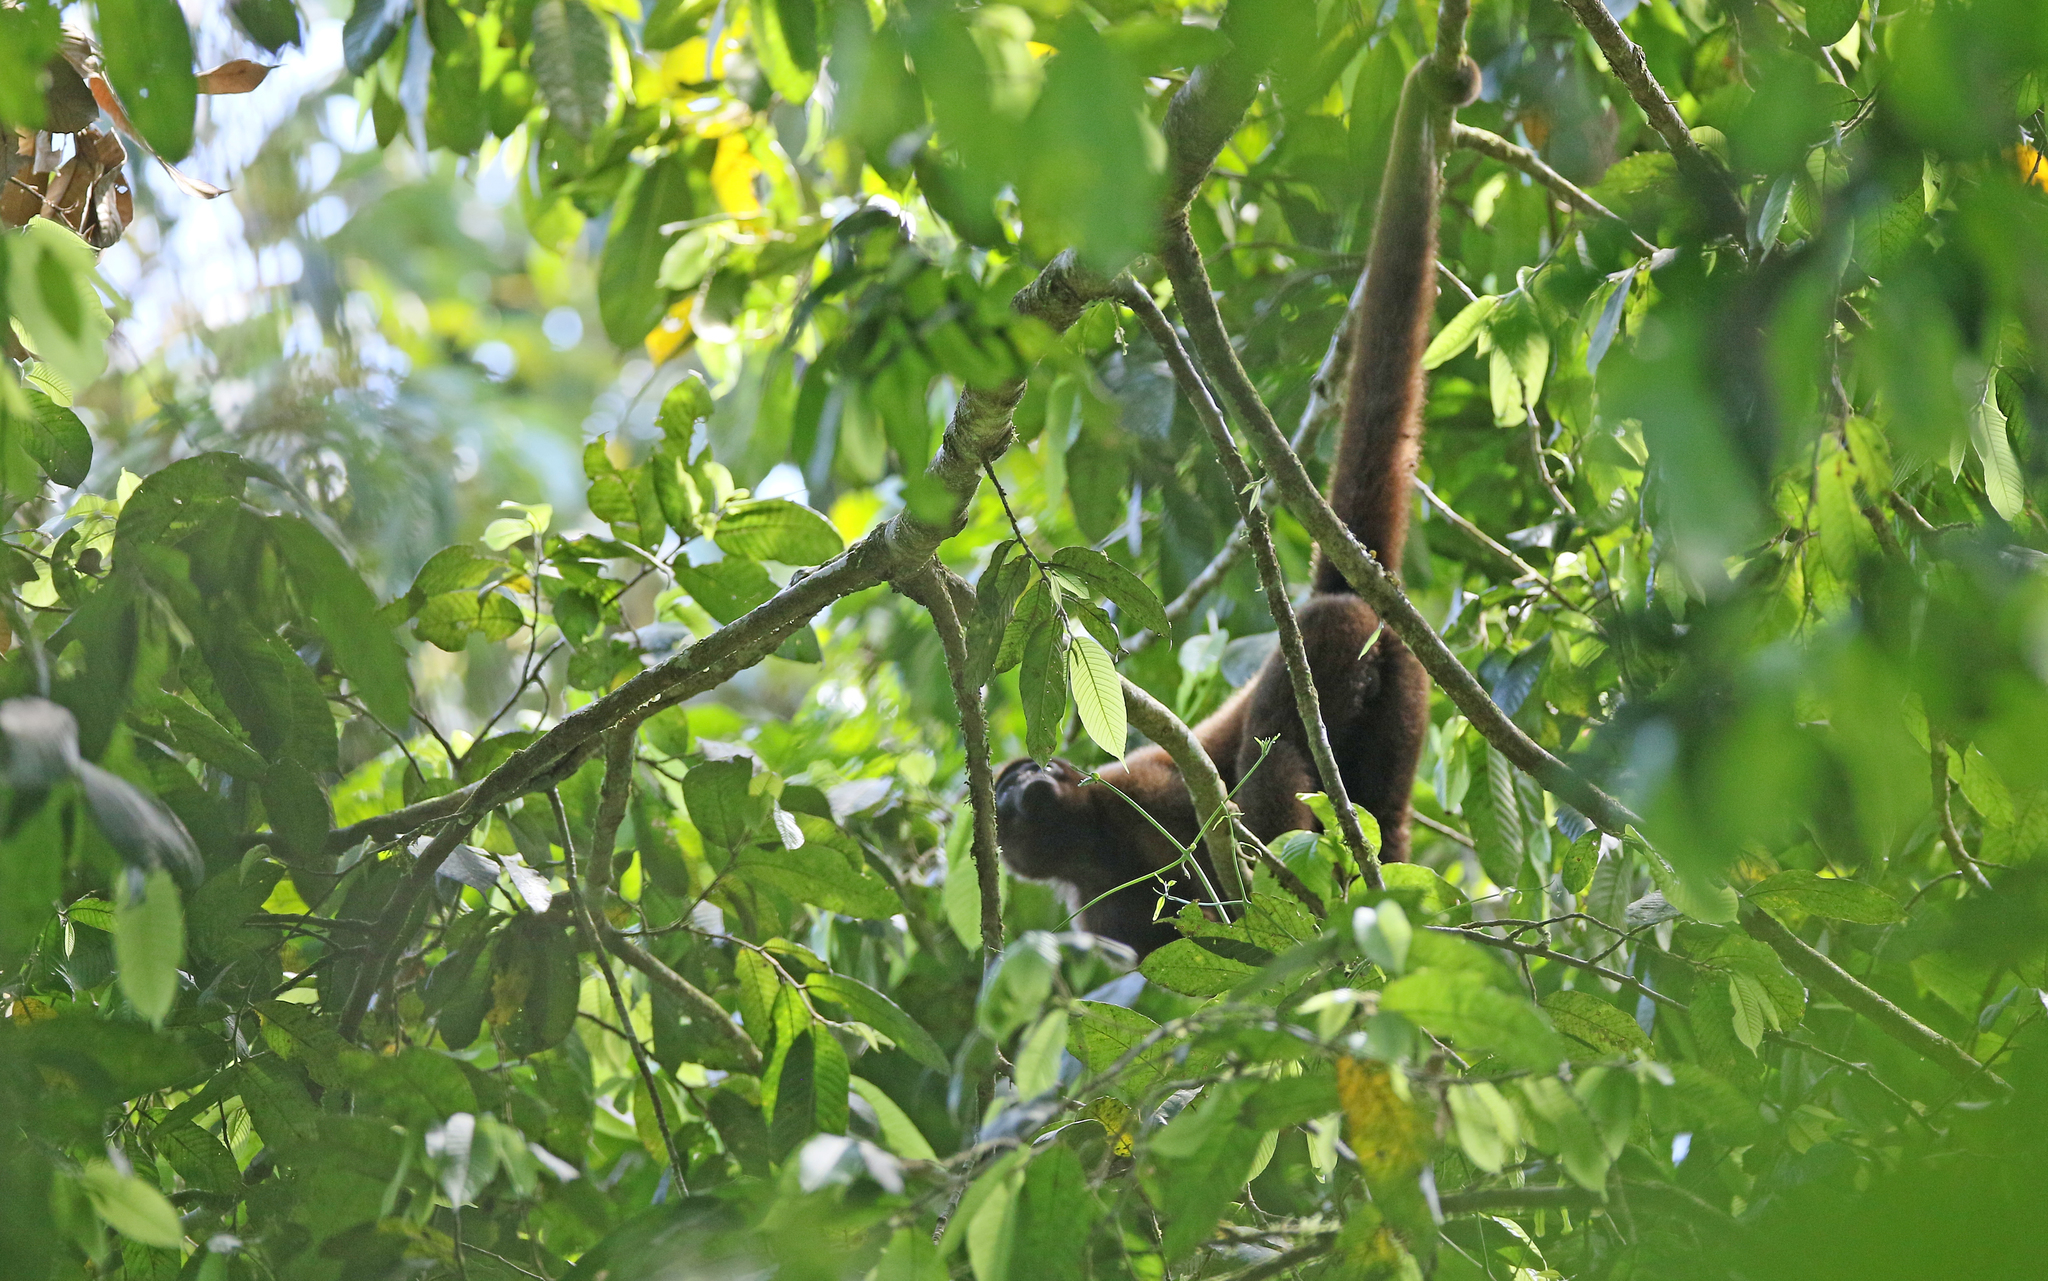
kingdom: Animalia
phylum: Chordata
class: Mammalia
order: Primates
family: Atelidae
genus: Lagothrix
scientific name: Lagothrix lagothricha
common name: Brown woolly monkey
